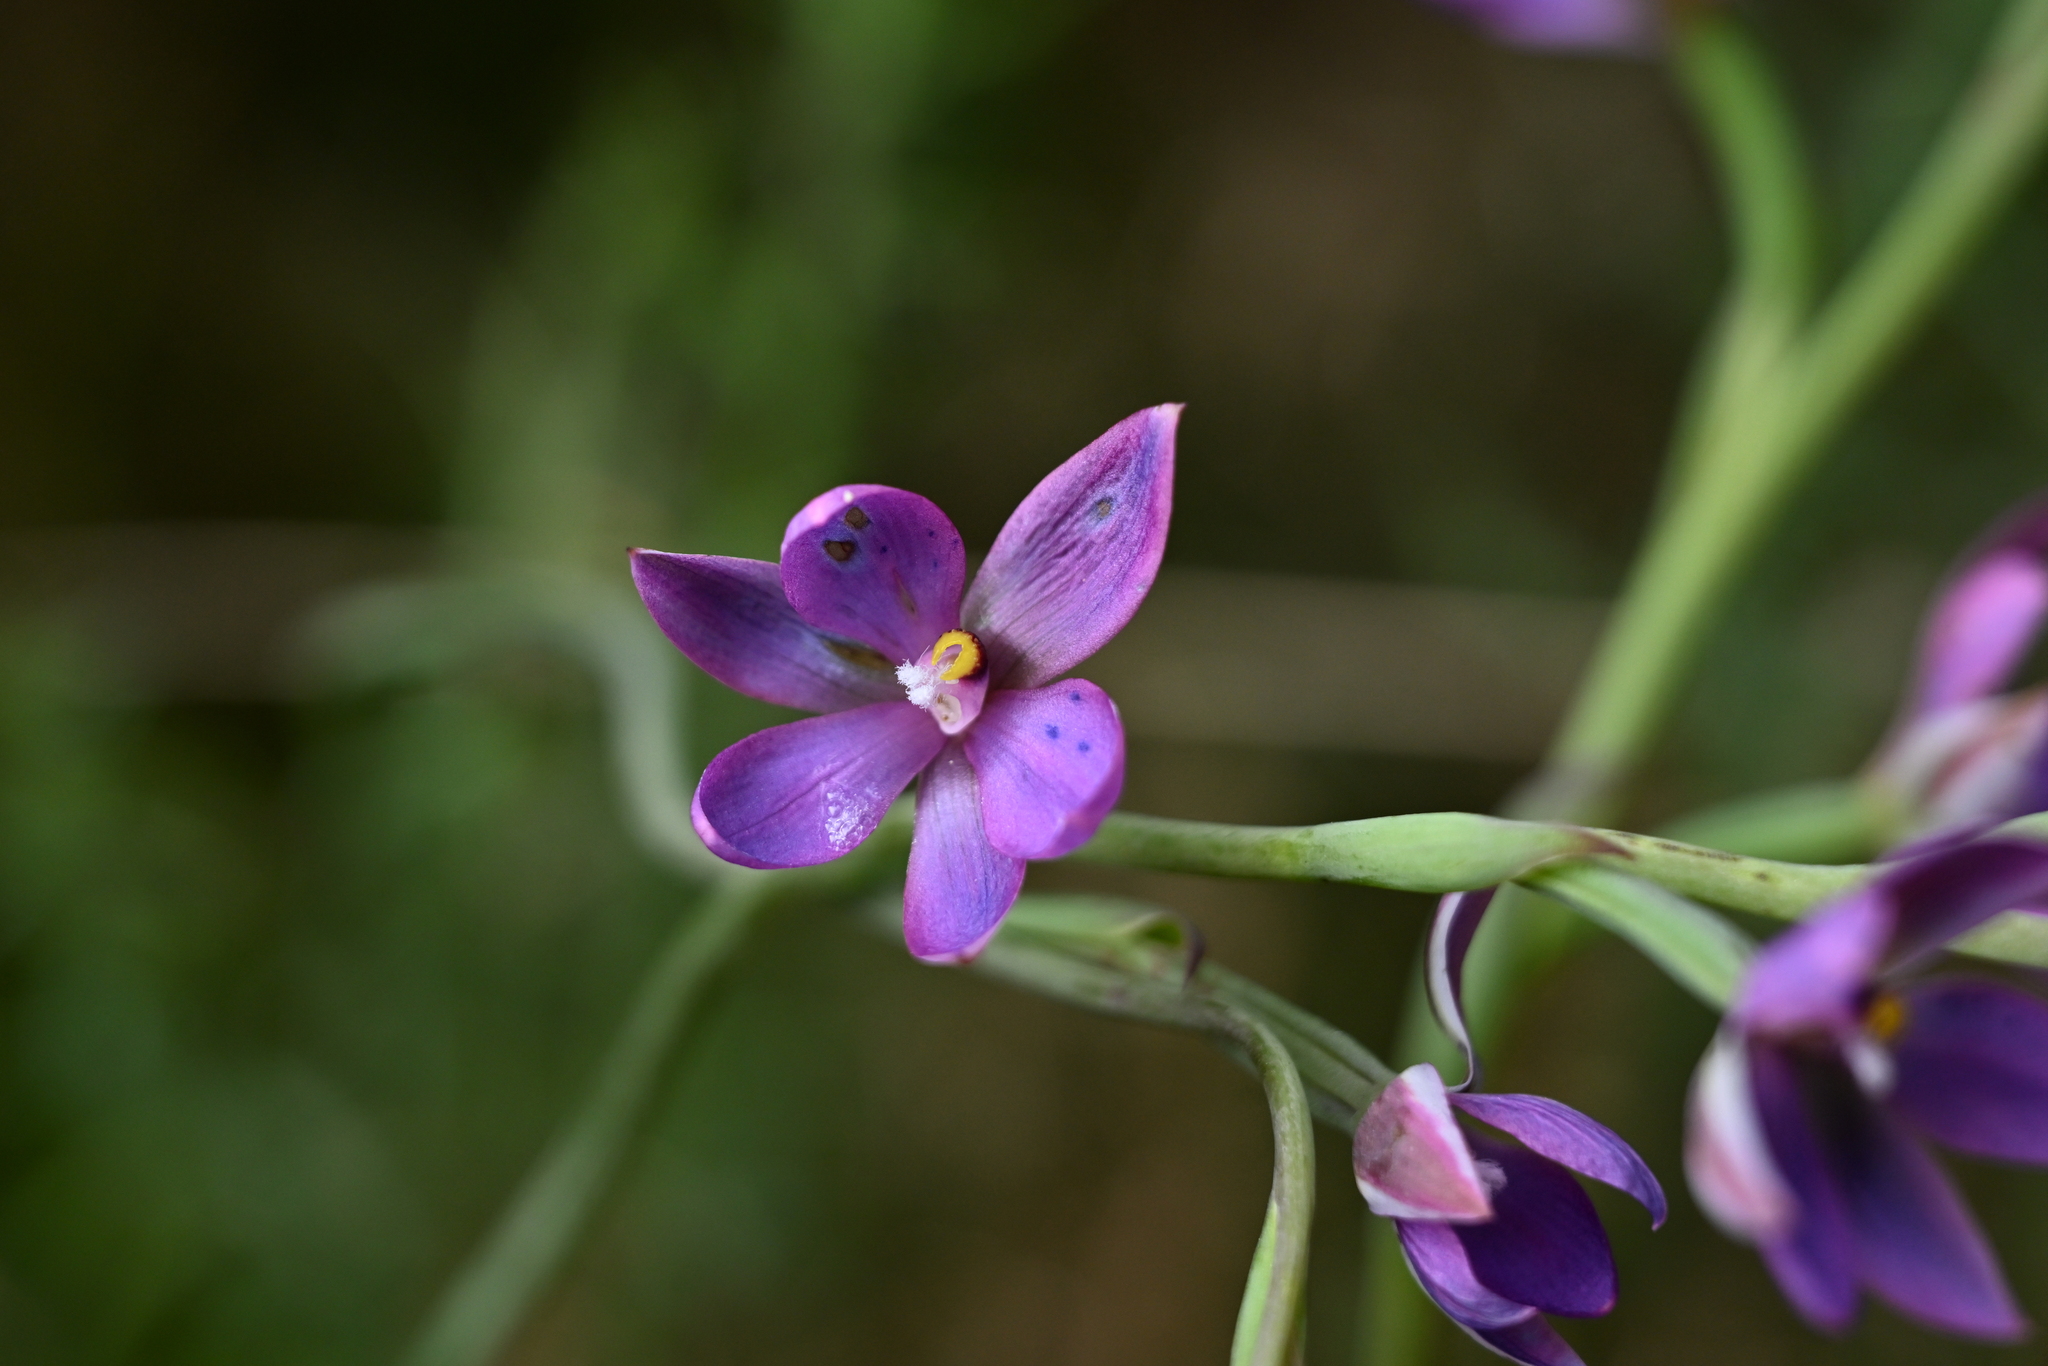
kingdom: Plantae
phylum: Tracheophyta
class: Liliopsida
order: Asparagales
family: Orchidaceae
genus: Thelymitra
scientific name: Thelymitra nervosa
